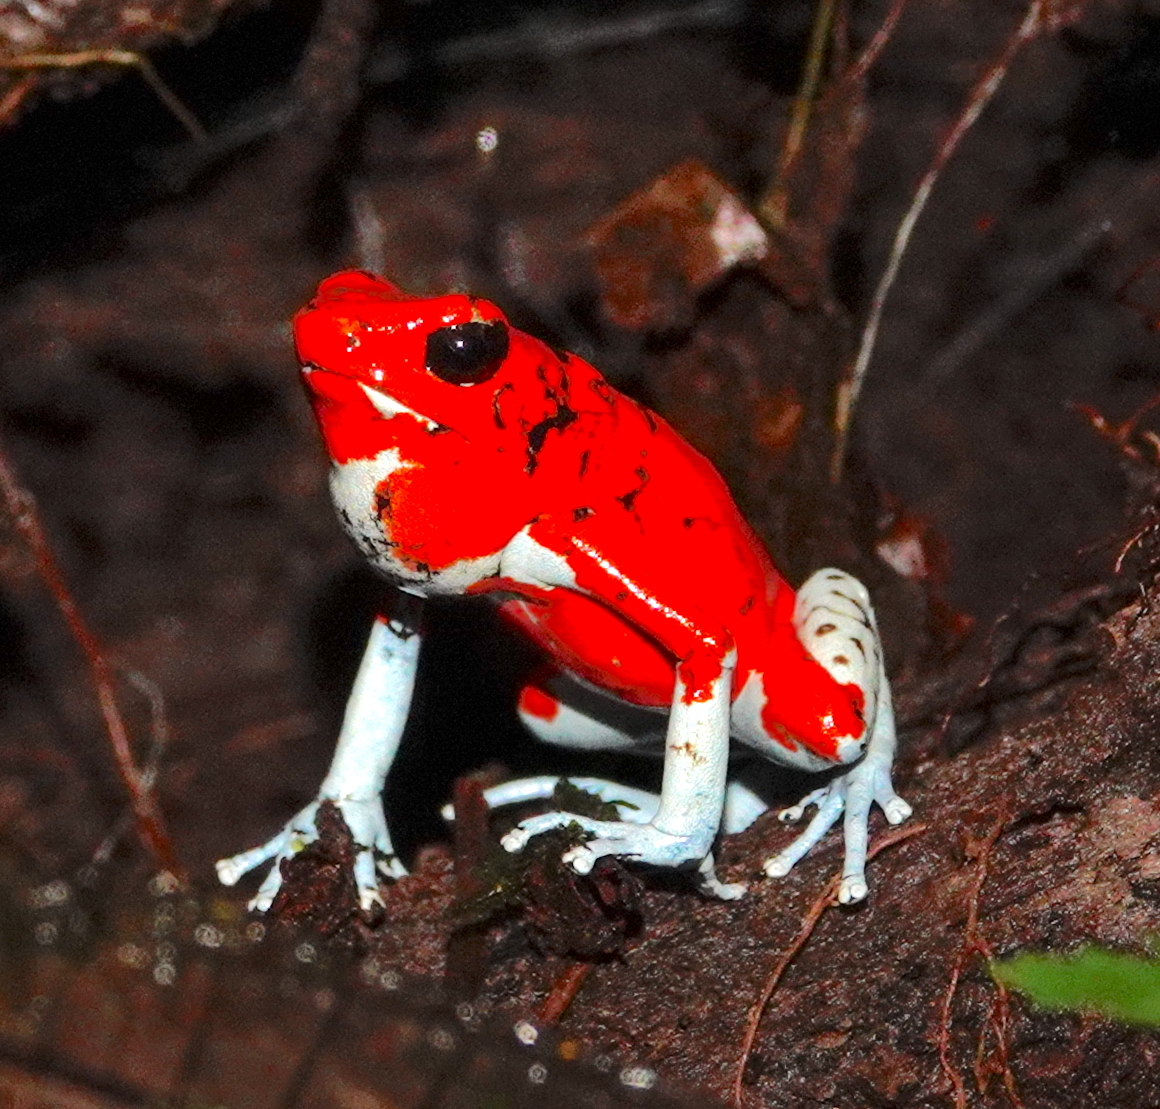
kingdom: Animalia
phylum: Chordata
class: Amphibia
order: Anura
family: Dendrobatidae
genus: Oophaga
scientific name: Oophaga sylvatica
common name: Little-devil poison frog
